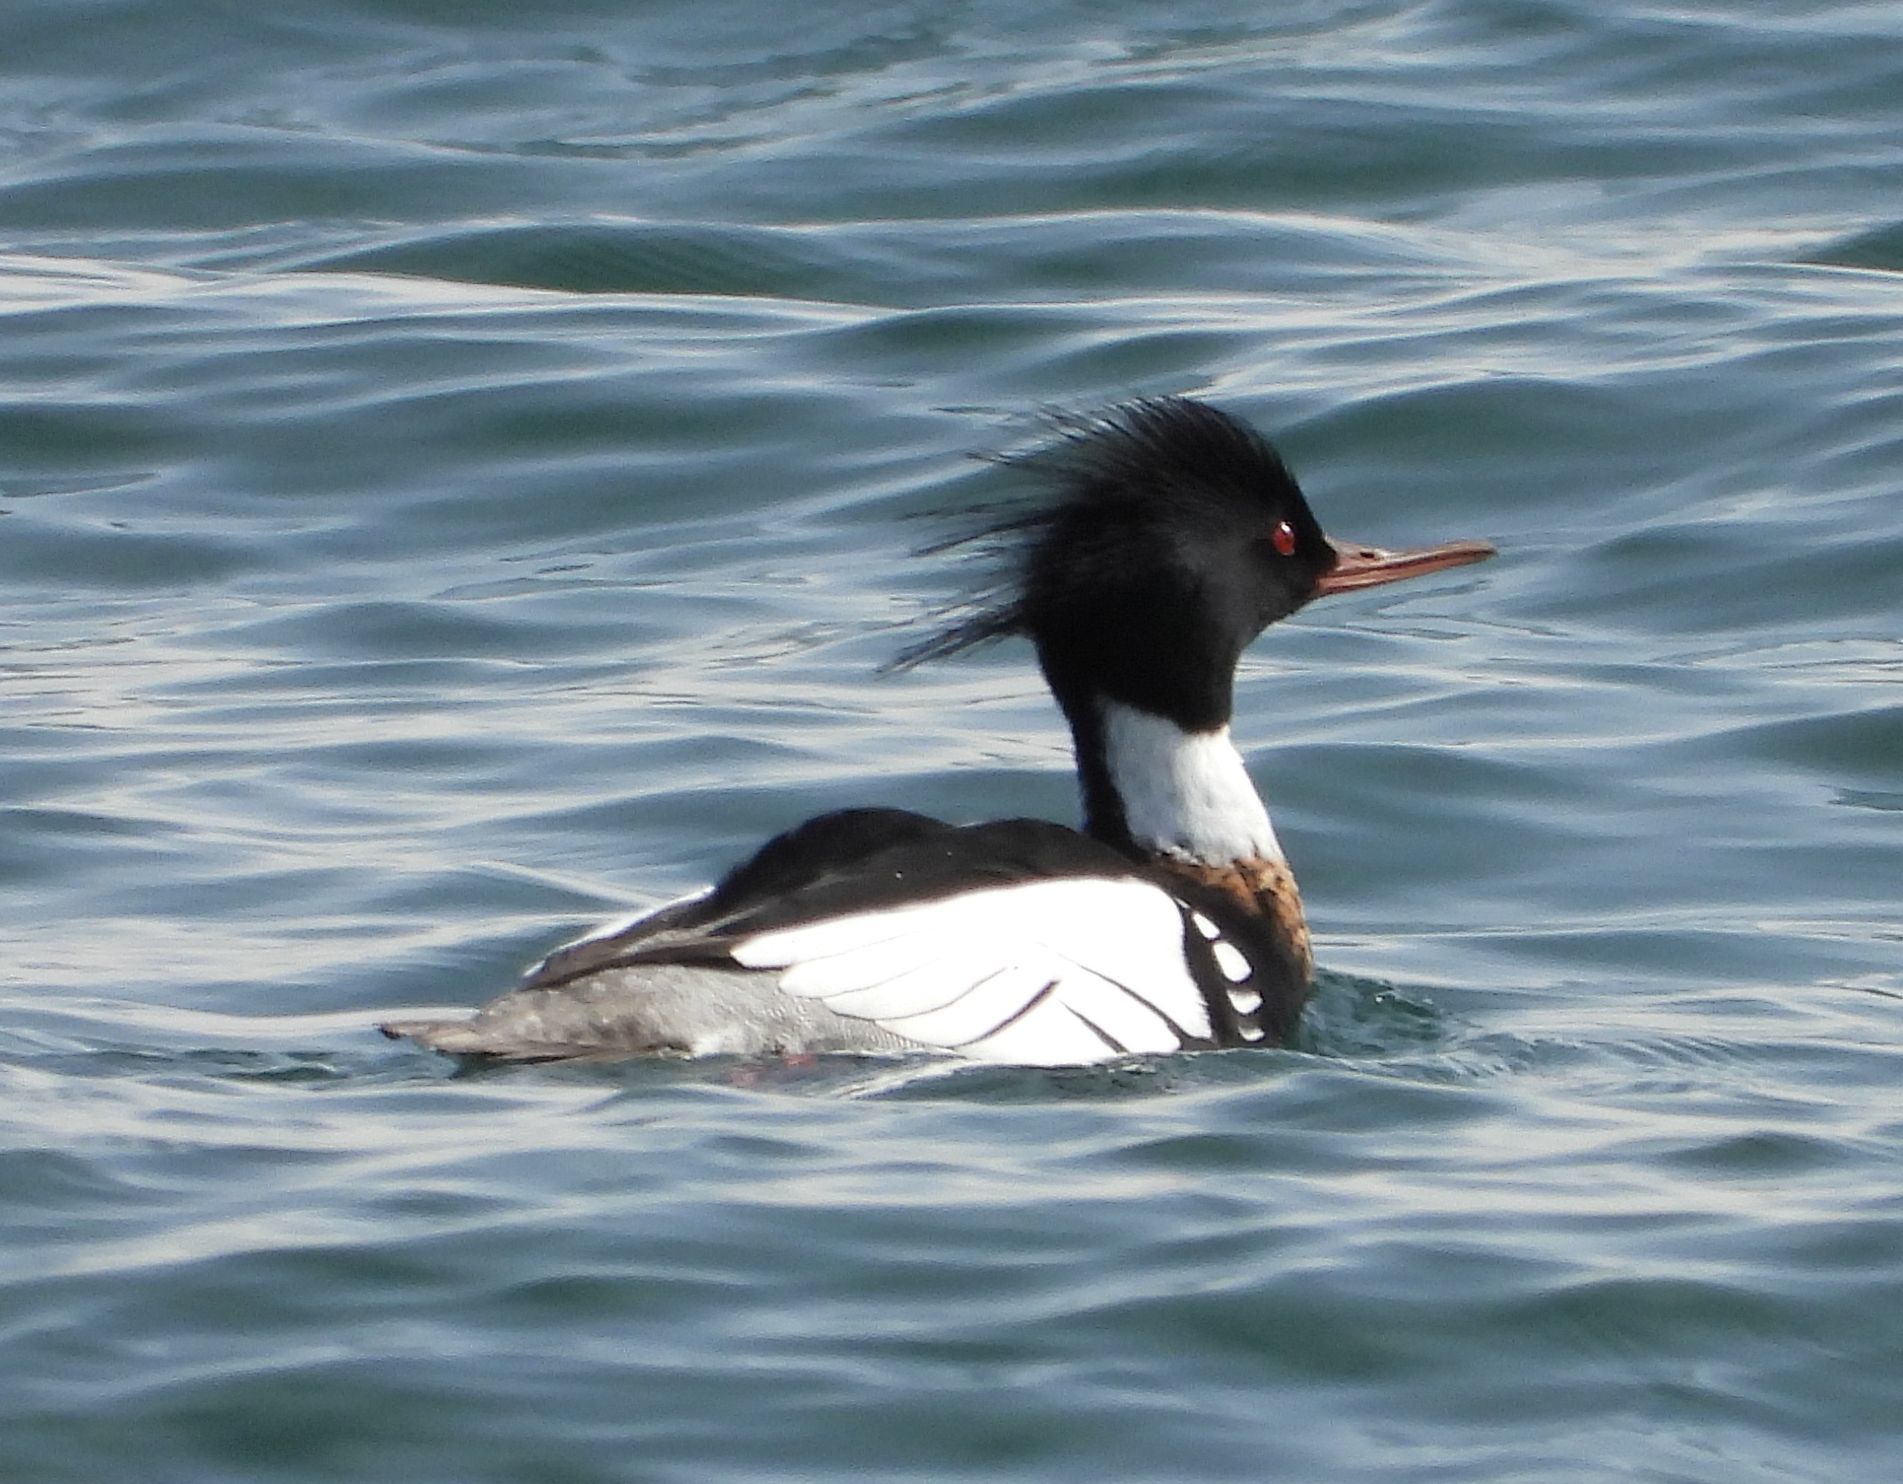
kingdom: Animalia
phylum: Chordata
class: Aves
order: Anseriformes
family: Anatidae
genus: Mergus
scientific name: Mergus serrator
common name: Red-breasted merganser
